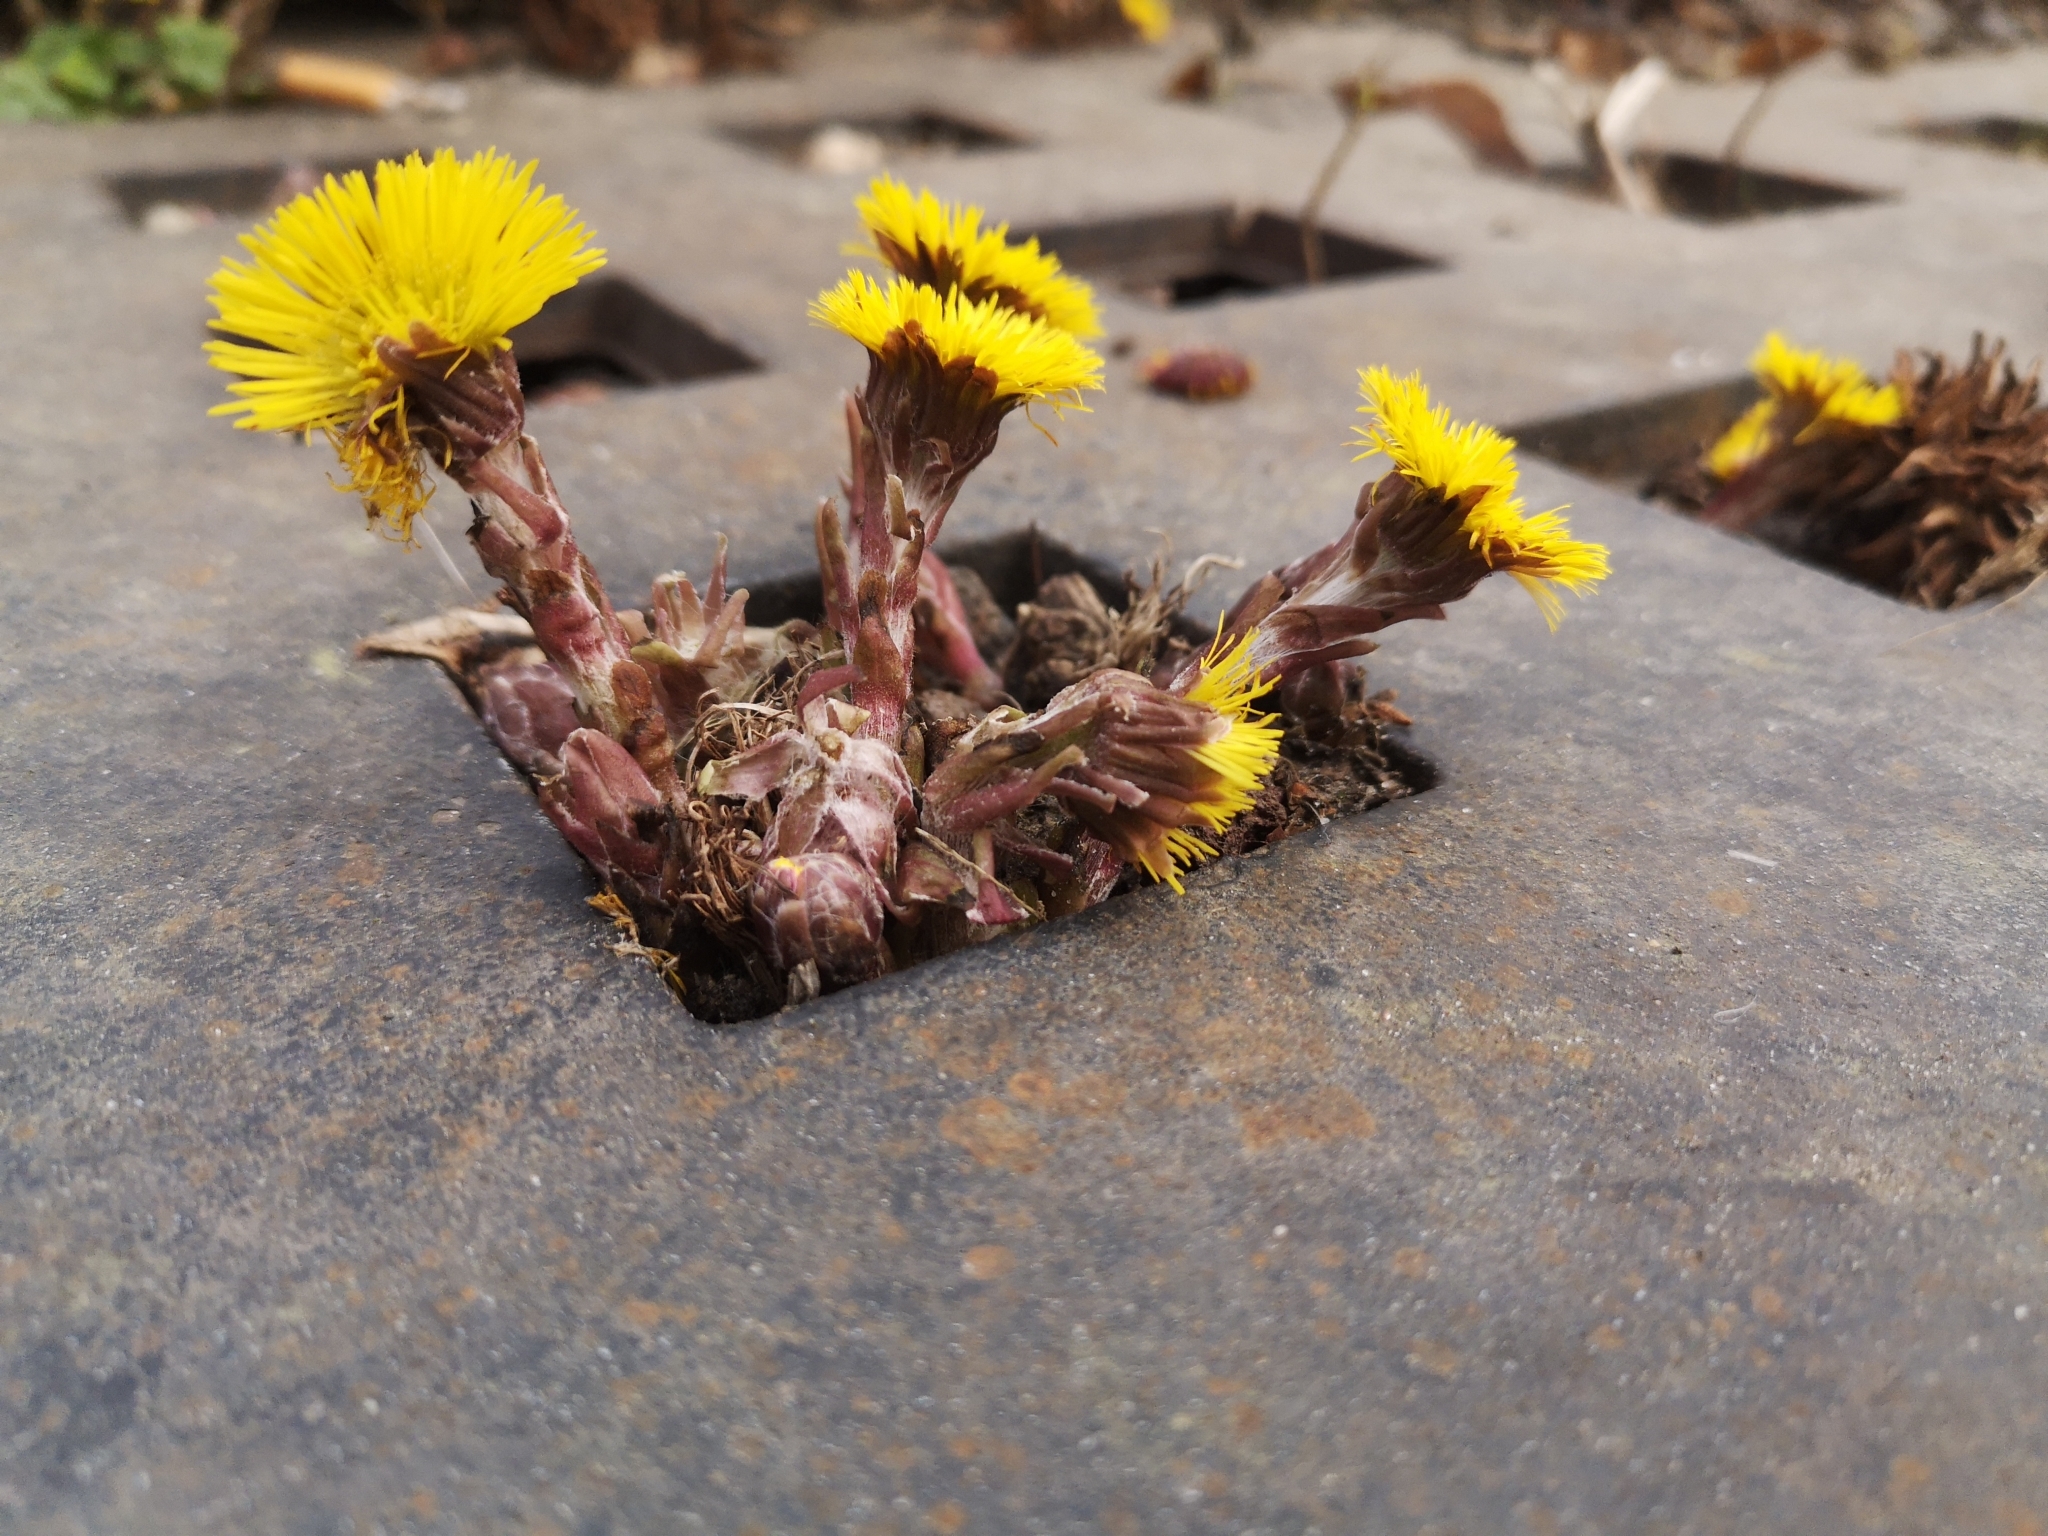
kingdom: Plantae
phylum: Tracheophyta
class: Magnoliopsida
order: Asterales
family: Asteraceae
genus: Tussilago
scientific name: Tussilago farfara
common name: Coltsfoot
